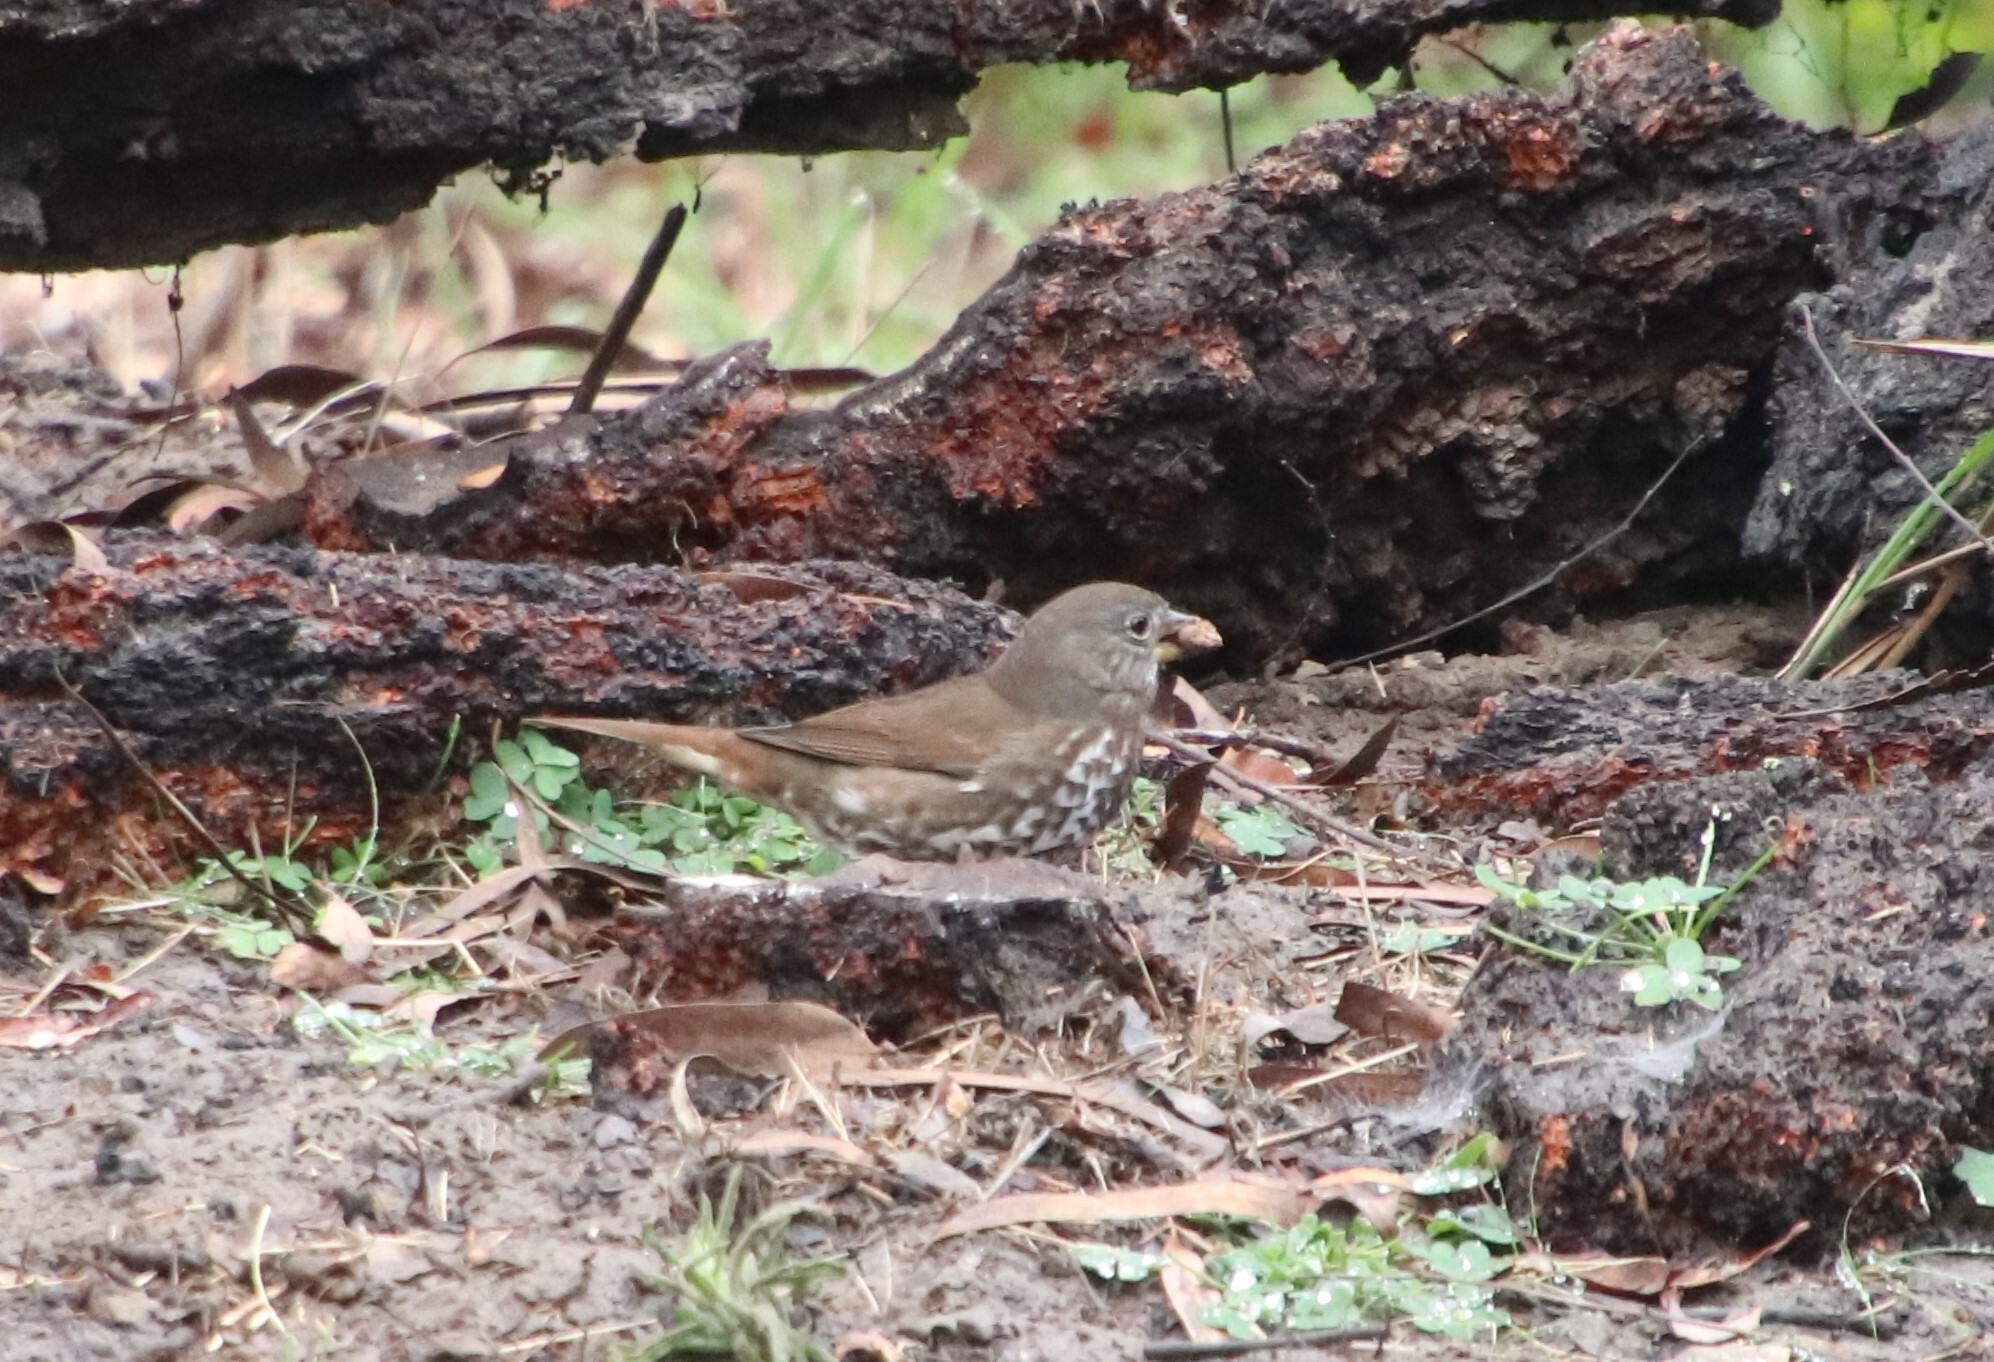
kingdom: Animalia
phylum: Chordata
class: Aves
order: Passeriformes
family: Passerellidae
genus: Passerella
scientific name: Passerella iliaca
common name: Fox sparrow
